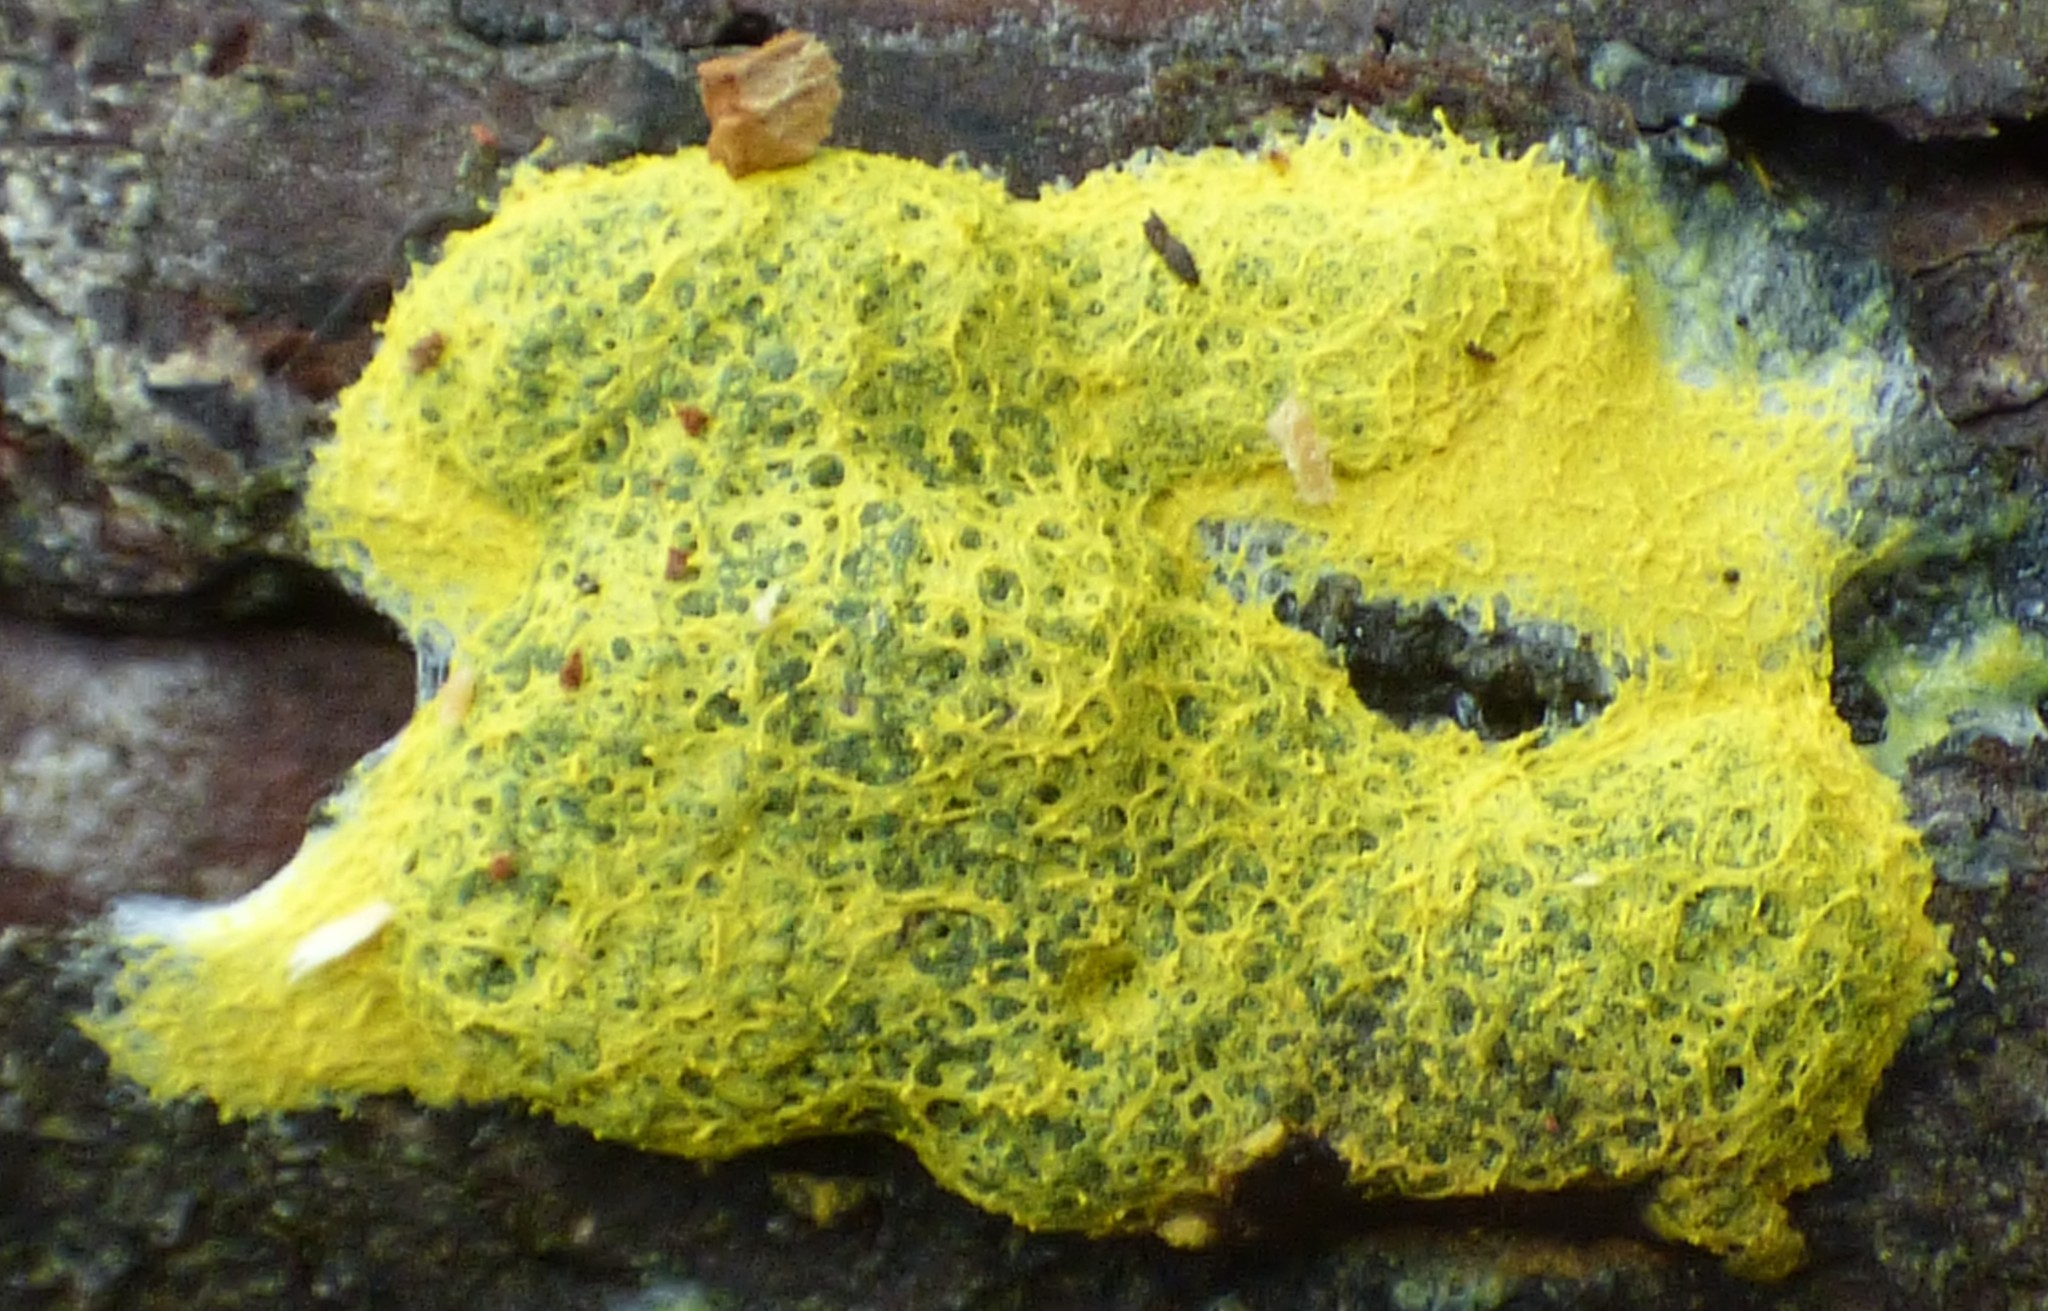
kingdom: Protozoa
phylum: Mycetozoa
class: Myxomycetes
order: Physarales
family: Physaraceae
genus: Fuligo
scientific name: Fuligo septica
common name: Dog vomit slime mold
